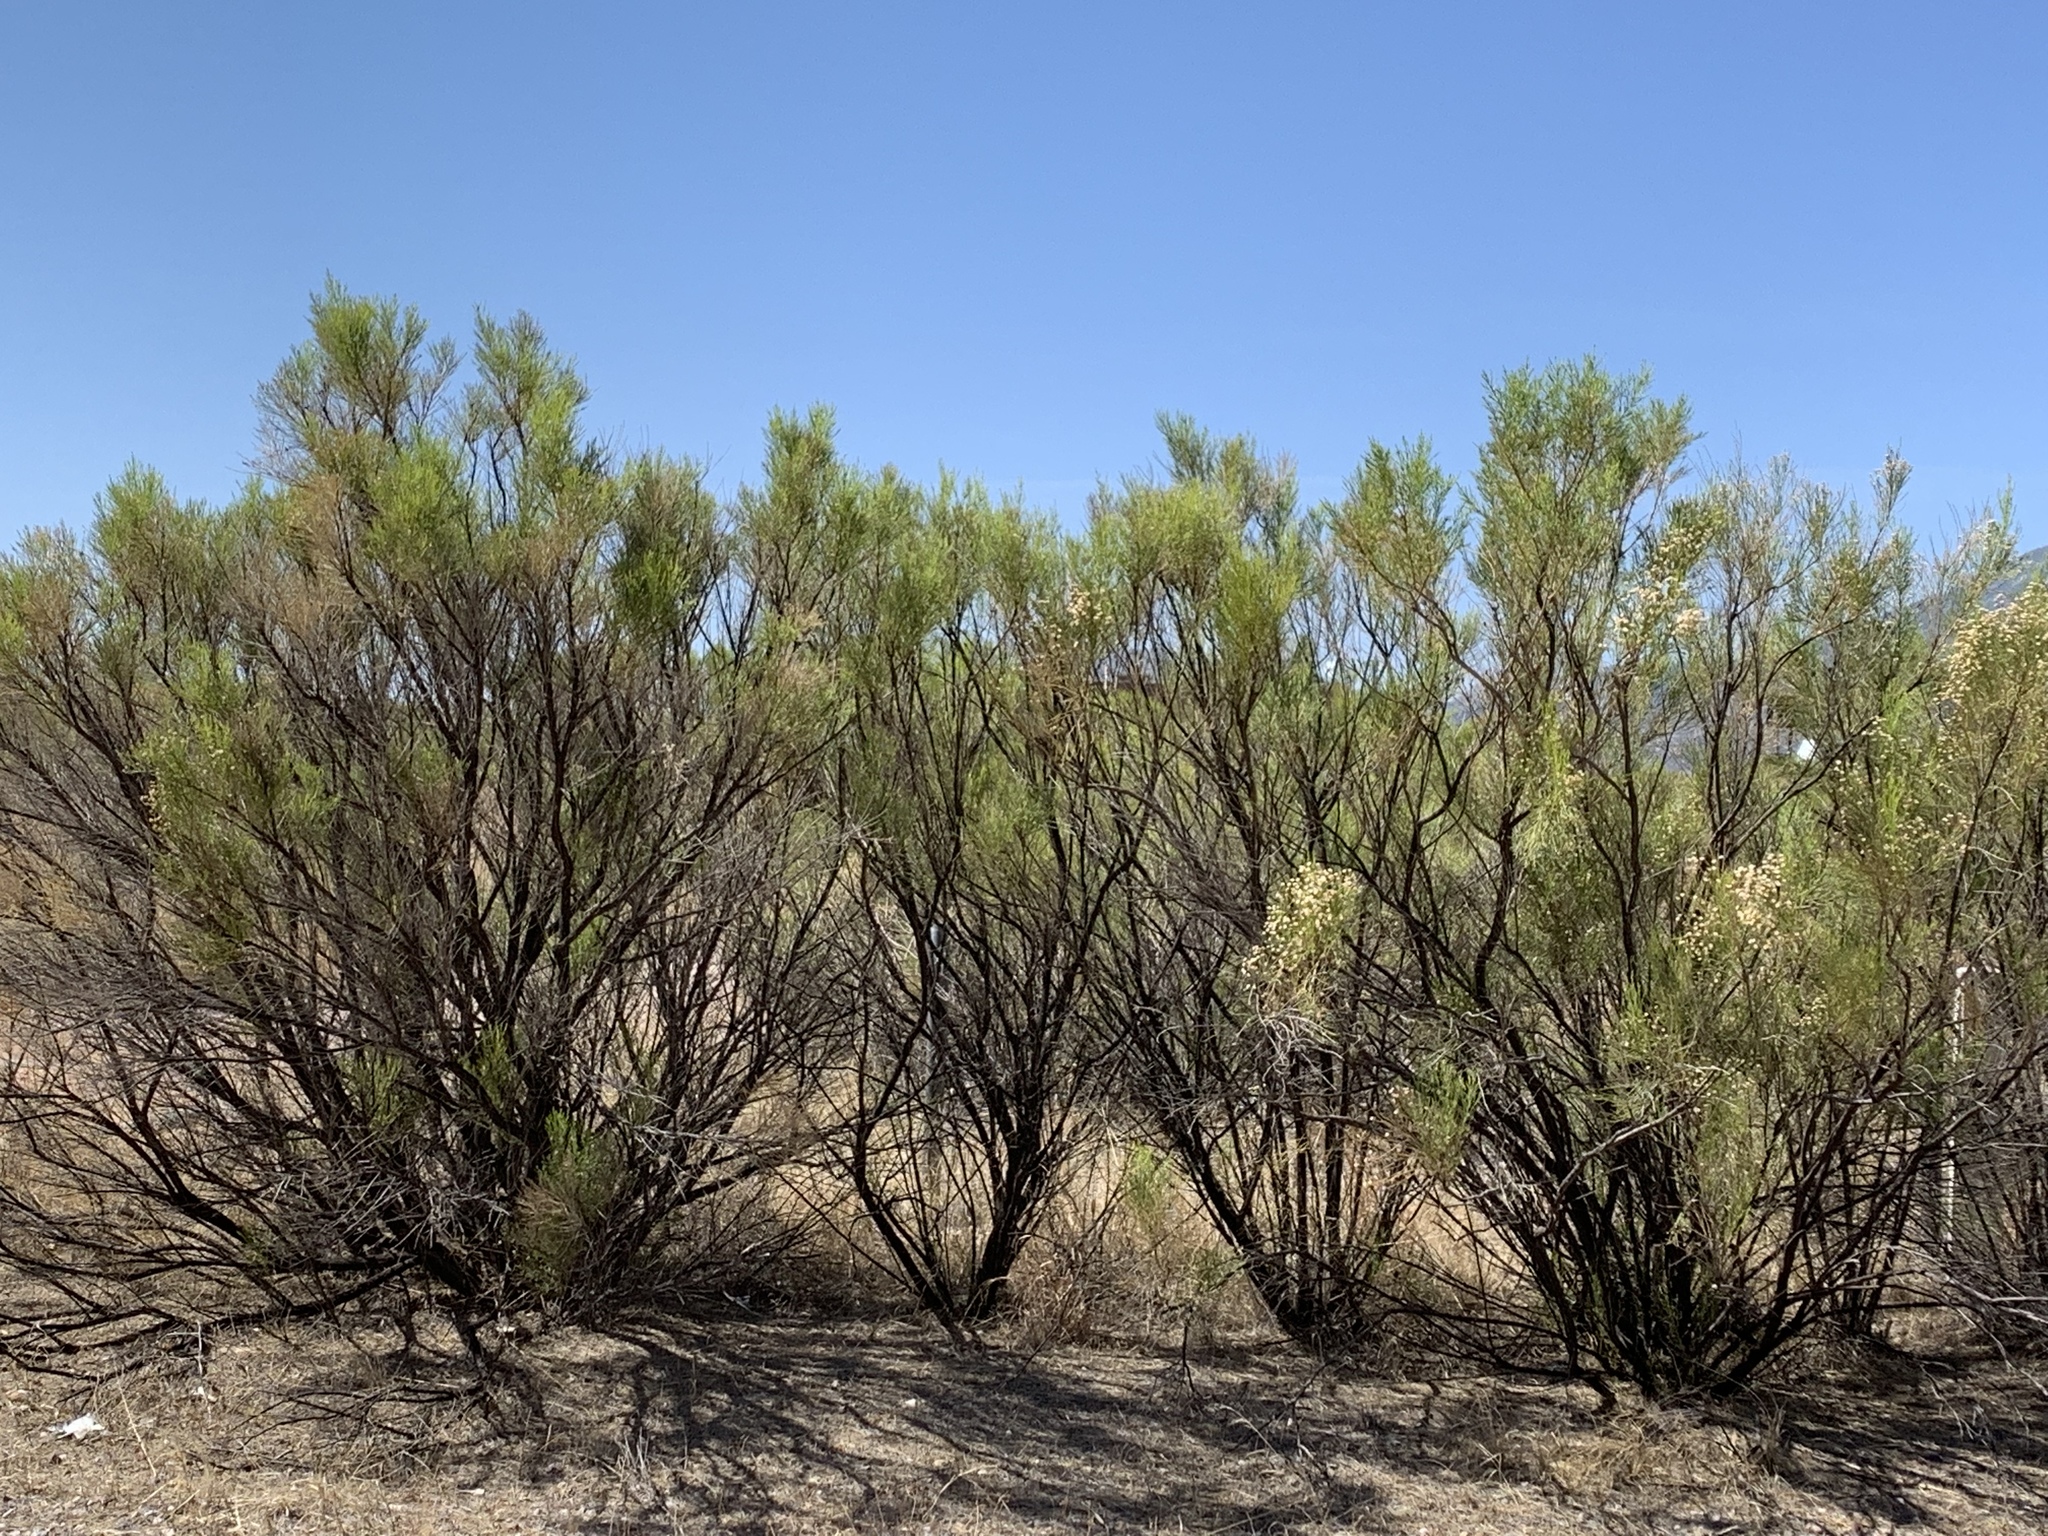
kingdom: Plantae
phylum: Tracheophyta
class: Magnoliopsida
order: Asterales
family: Asteraceae
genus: Baccharis
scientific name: Baccharis sarothroides
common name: Desert-broom
